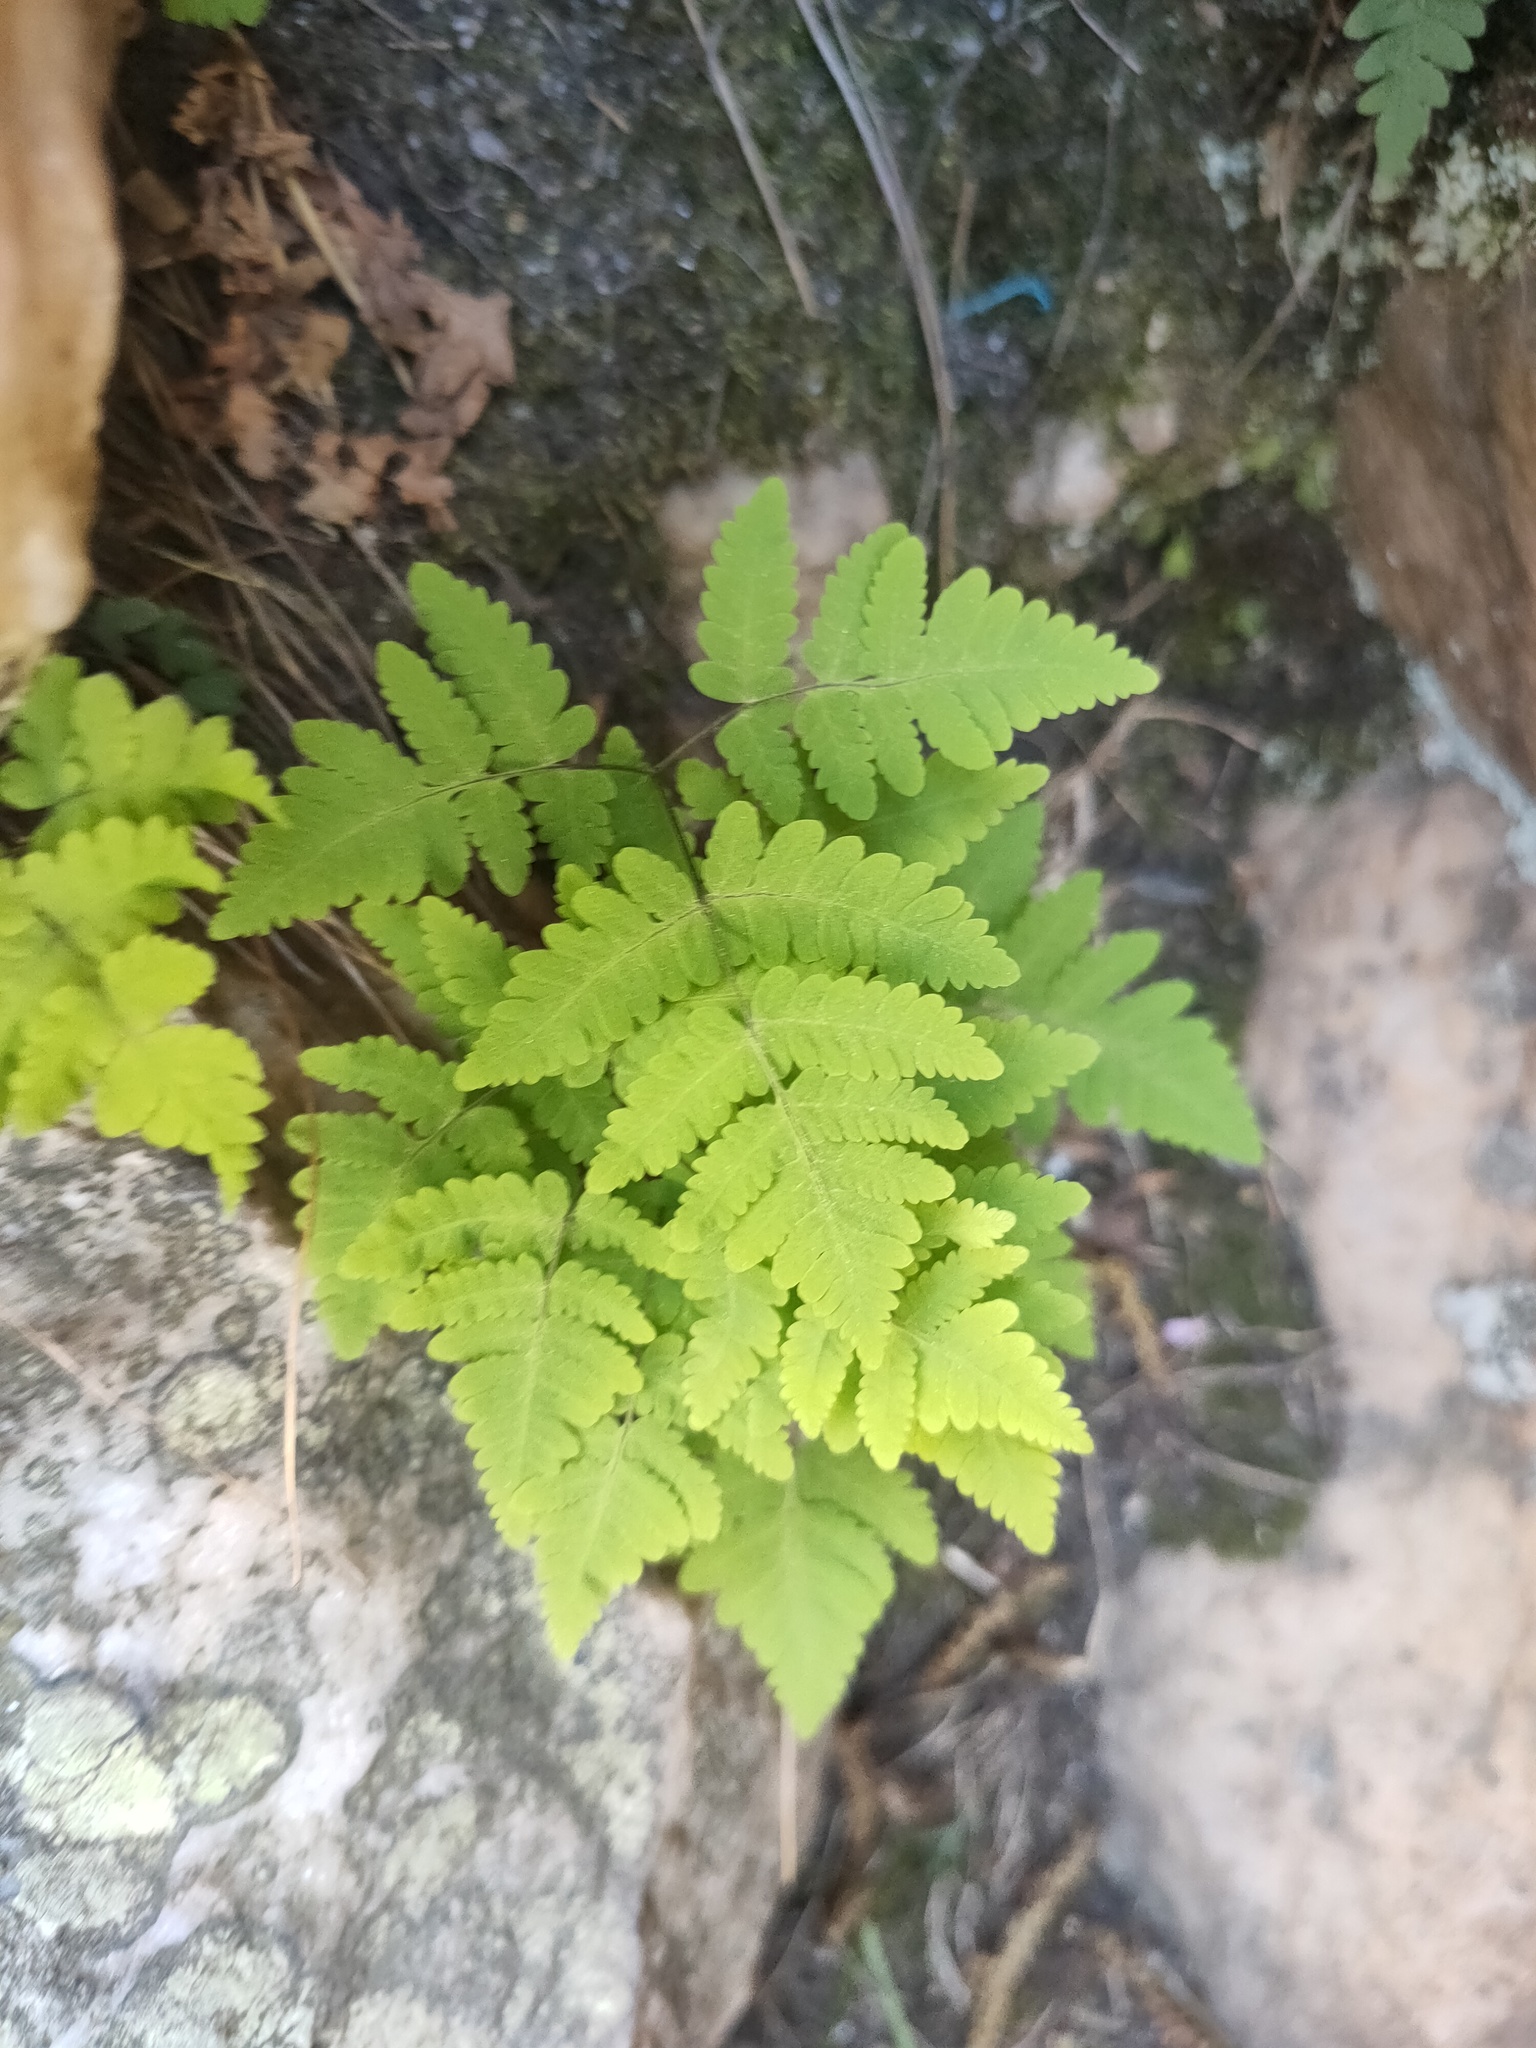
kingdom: Plantae
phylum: Tracheophyta
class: Polypodiopsida
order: Polypodiales
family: Cystopteridaceae
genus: Gymnocarpium
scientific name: Gymnocarpium dryopteris
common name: Oak fern
